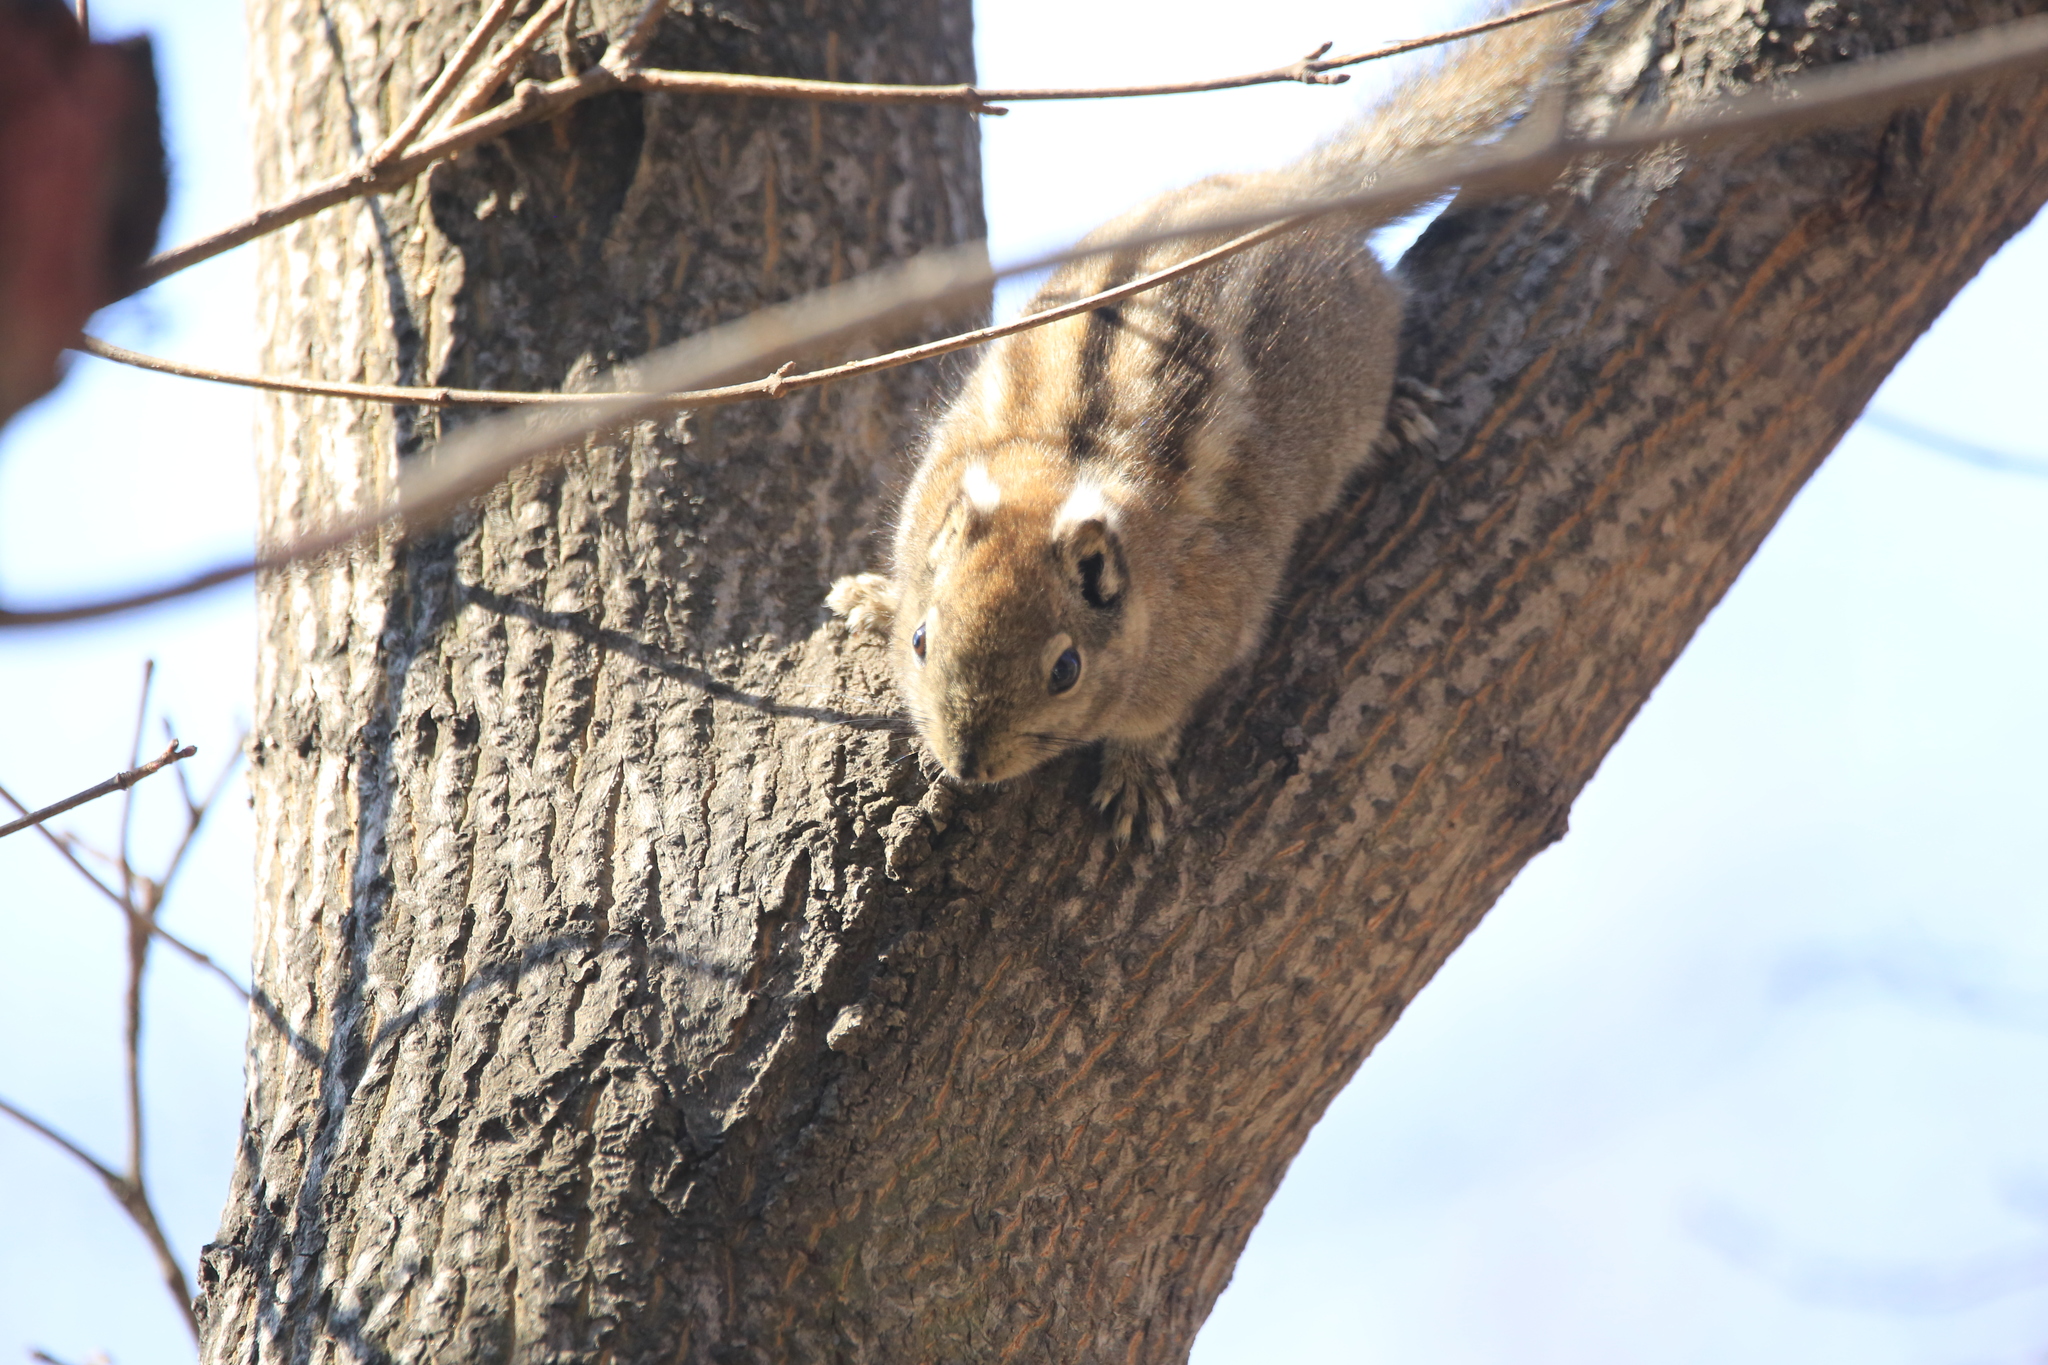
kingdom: Animalia
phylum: Chordata
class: Mammalia
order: Rodentia
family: Sciuridae
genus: Tamiops
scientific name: Tamiops swinhoei
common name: Swinhoe's striped squirrel
